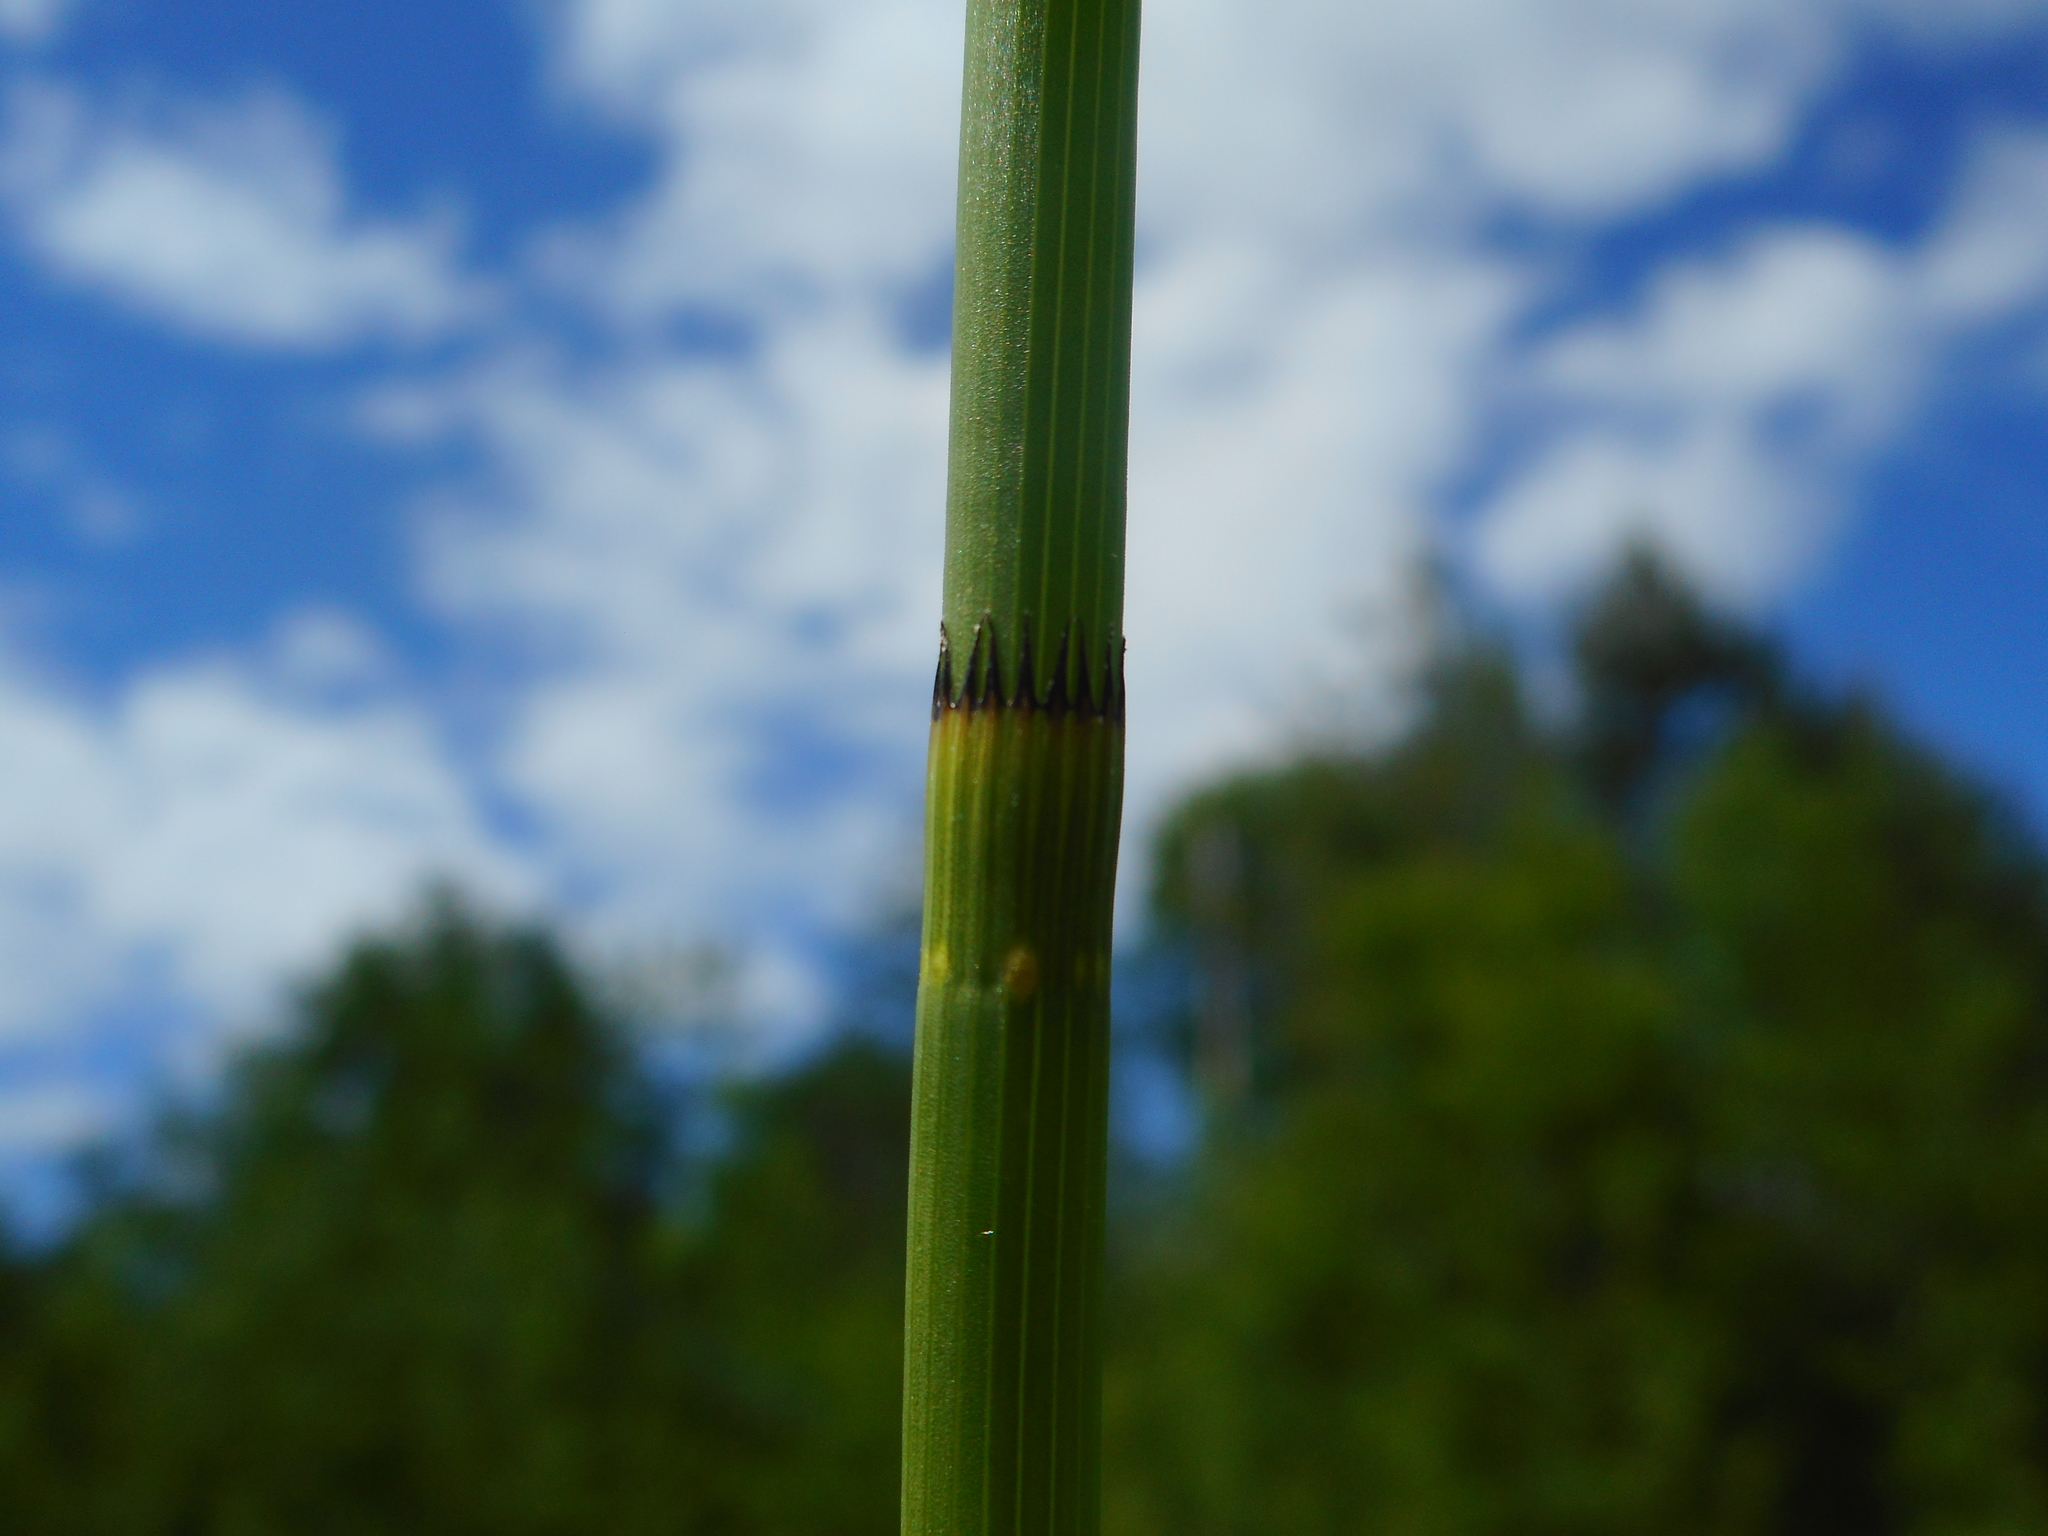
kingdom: Plantae
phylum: Tracheophyta
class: Polypodiopsida
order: Equisetales
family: Equisetaceae
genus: Equisetum
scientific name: Equisetum fluviatile
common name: Water horsetail
